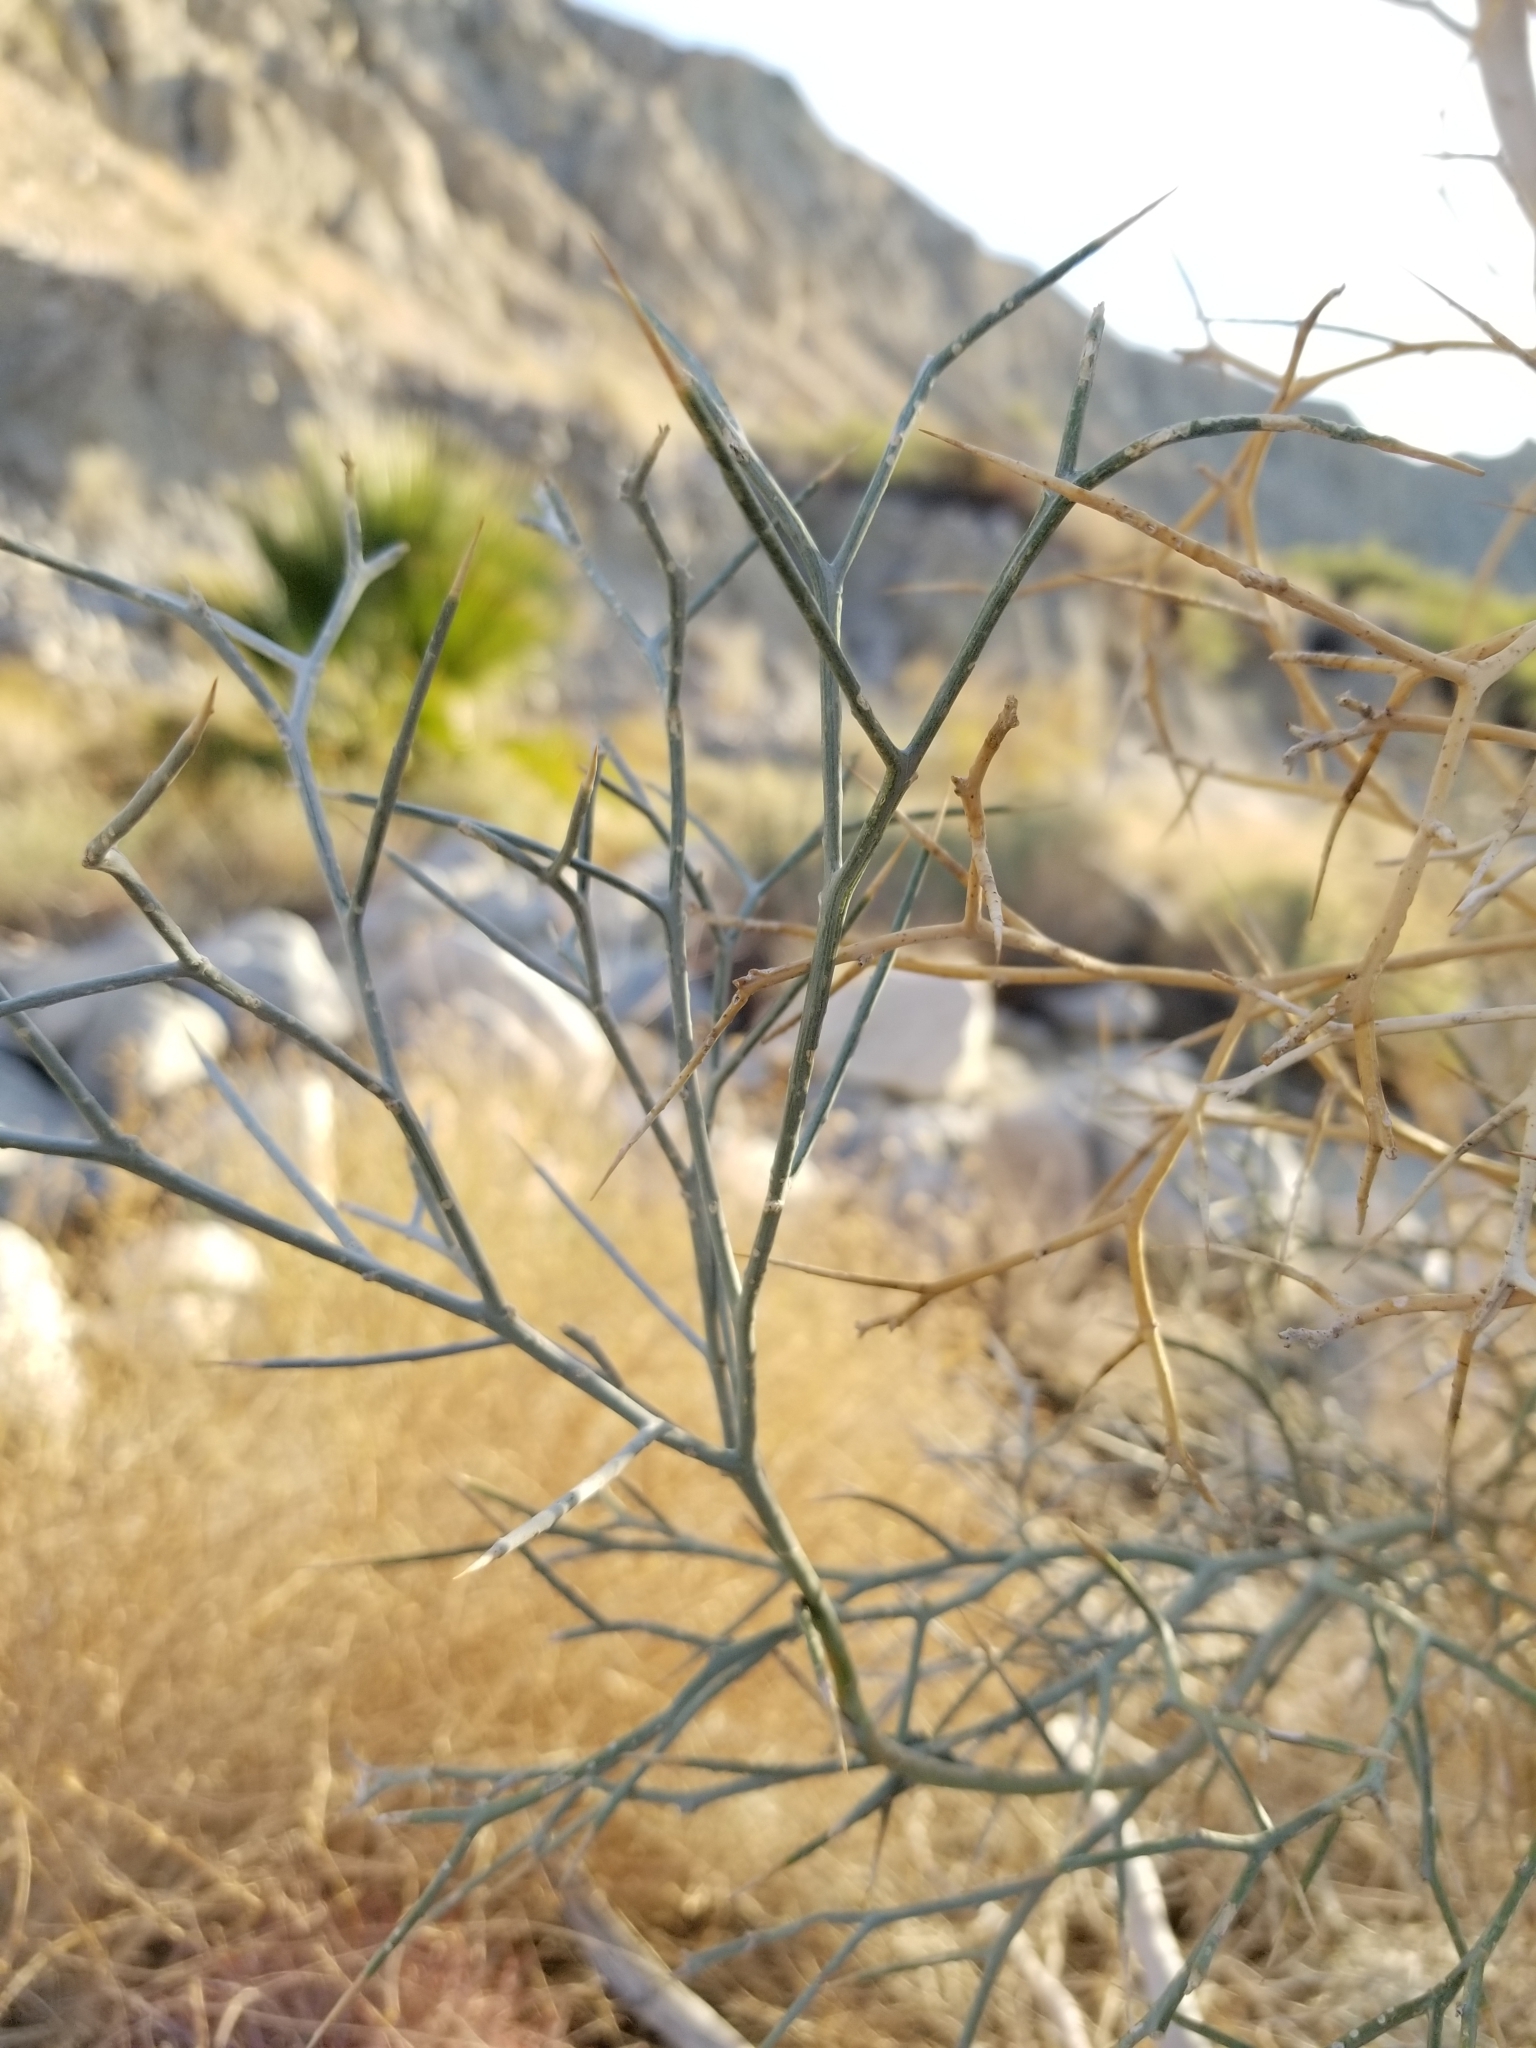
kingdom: Plantae
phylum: Tracheophyta
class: Magnoliopsida
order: Fabales
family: Fabaceae
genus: Psorothamnus
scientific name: Psorothamnus spinosus
